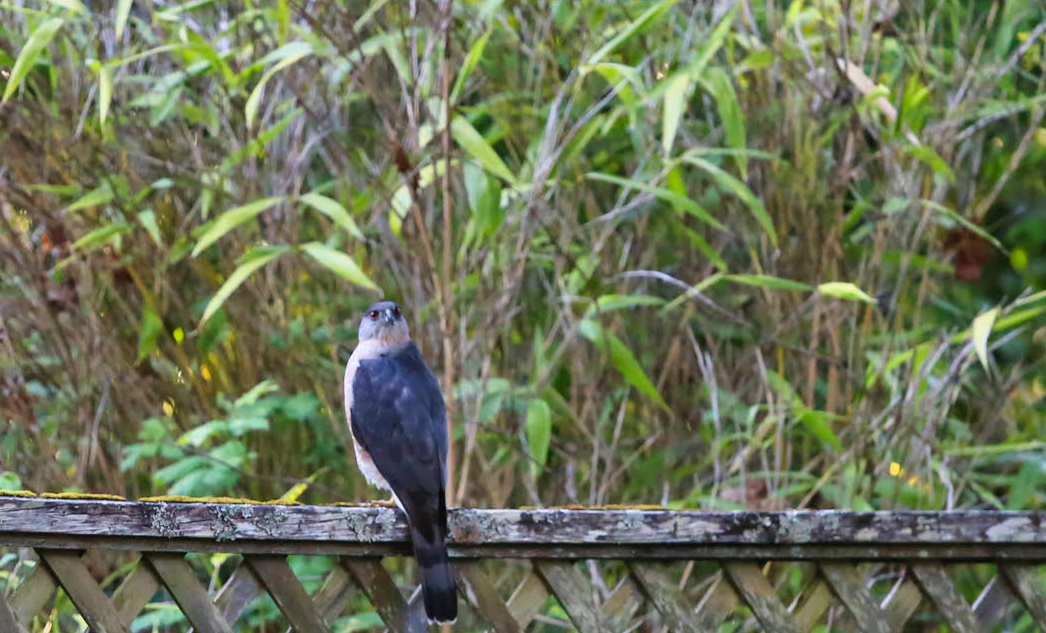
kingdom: Animalia
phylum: Chordata
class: Aves
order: Accipitriformes
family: Accipitridae
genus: Accipiter
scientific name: Accipiter cooperii
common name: Cooper's hawk
